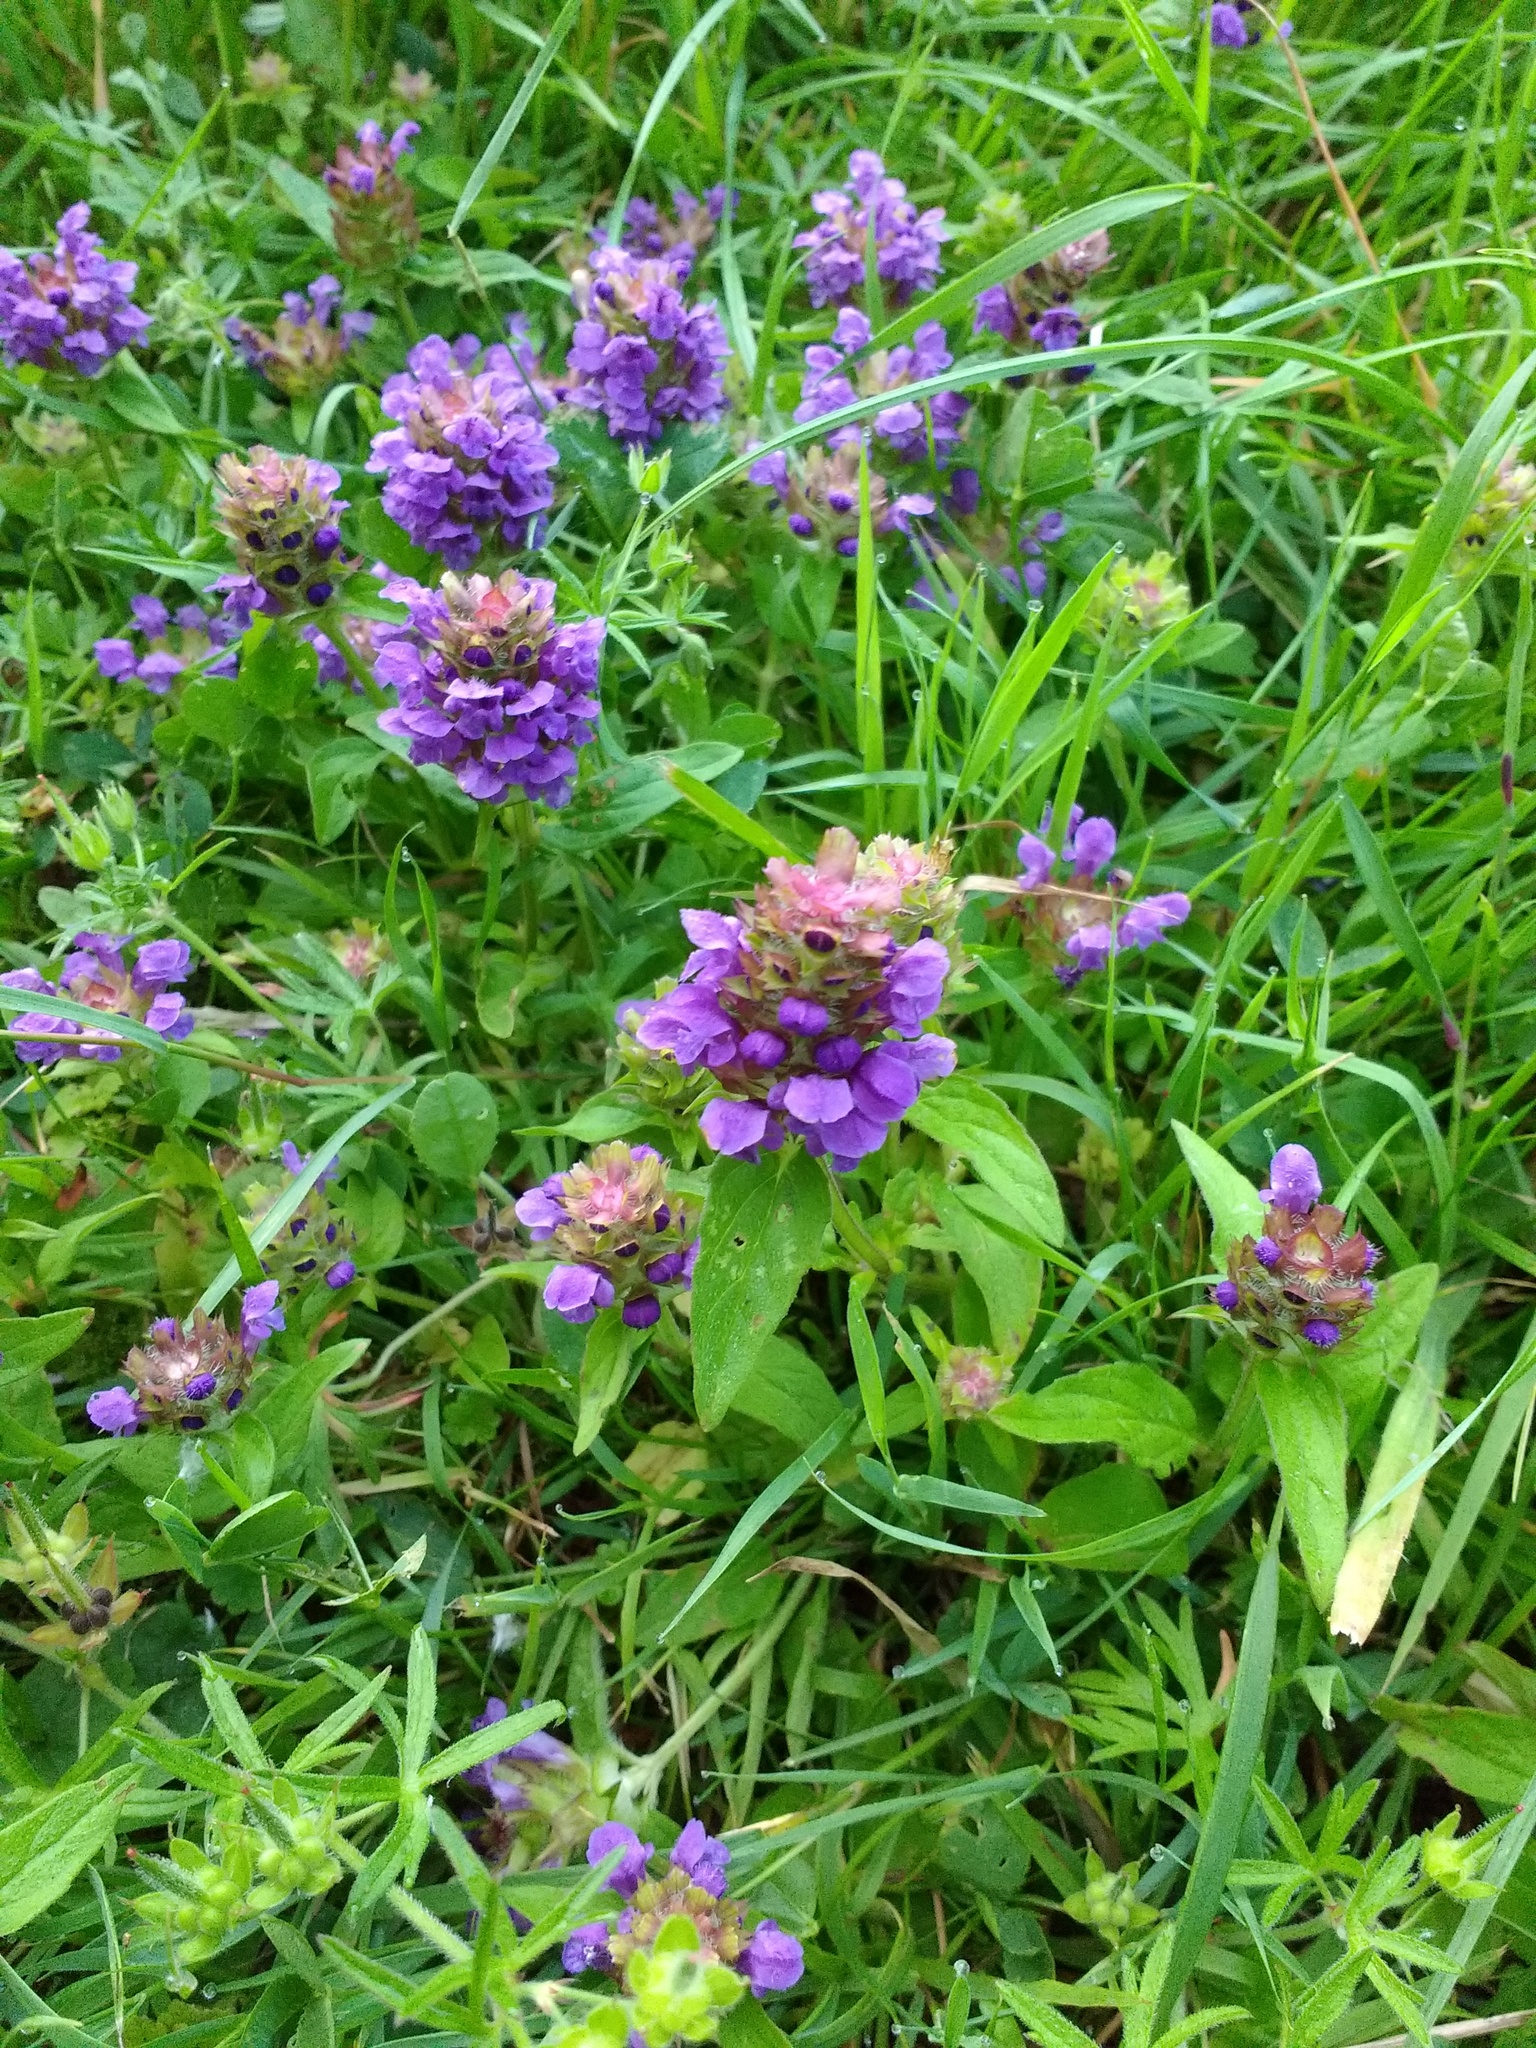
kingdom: Plantae
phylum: Tracheophyta
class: Magnoliopsida
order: Lamiales
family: Lamiaceae
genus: Prunella
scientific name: Prunella vulgaris
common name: Heal-all
